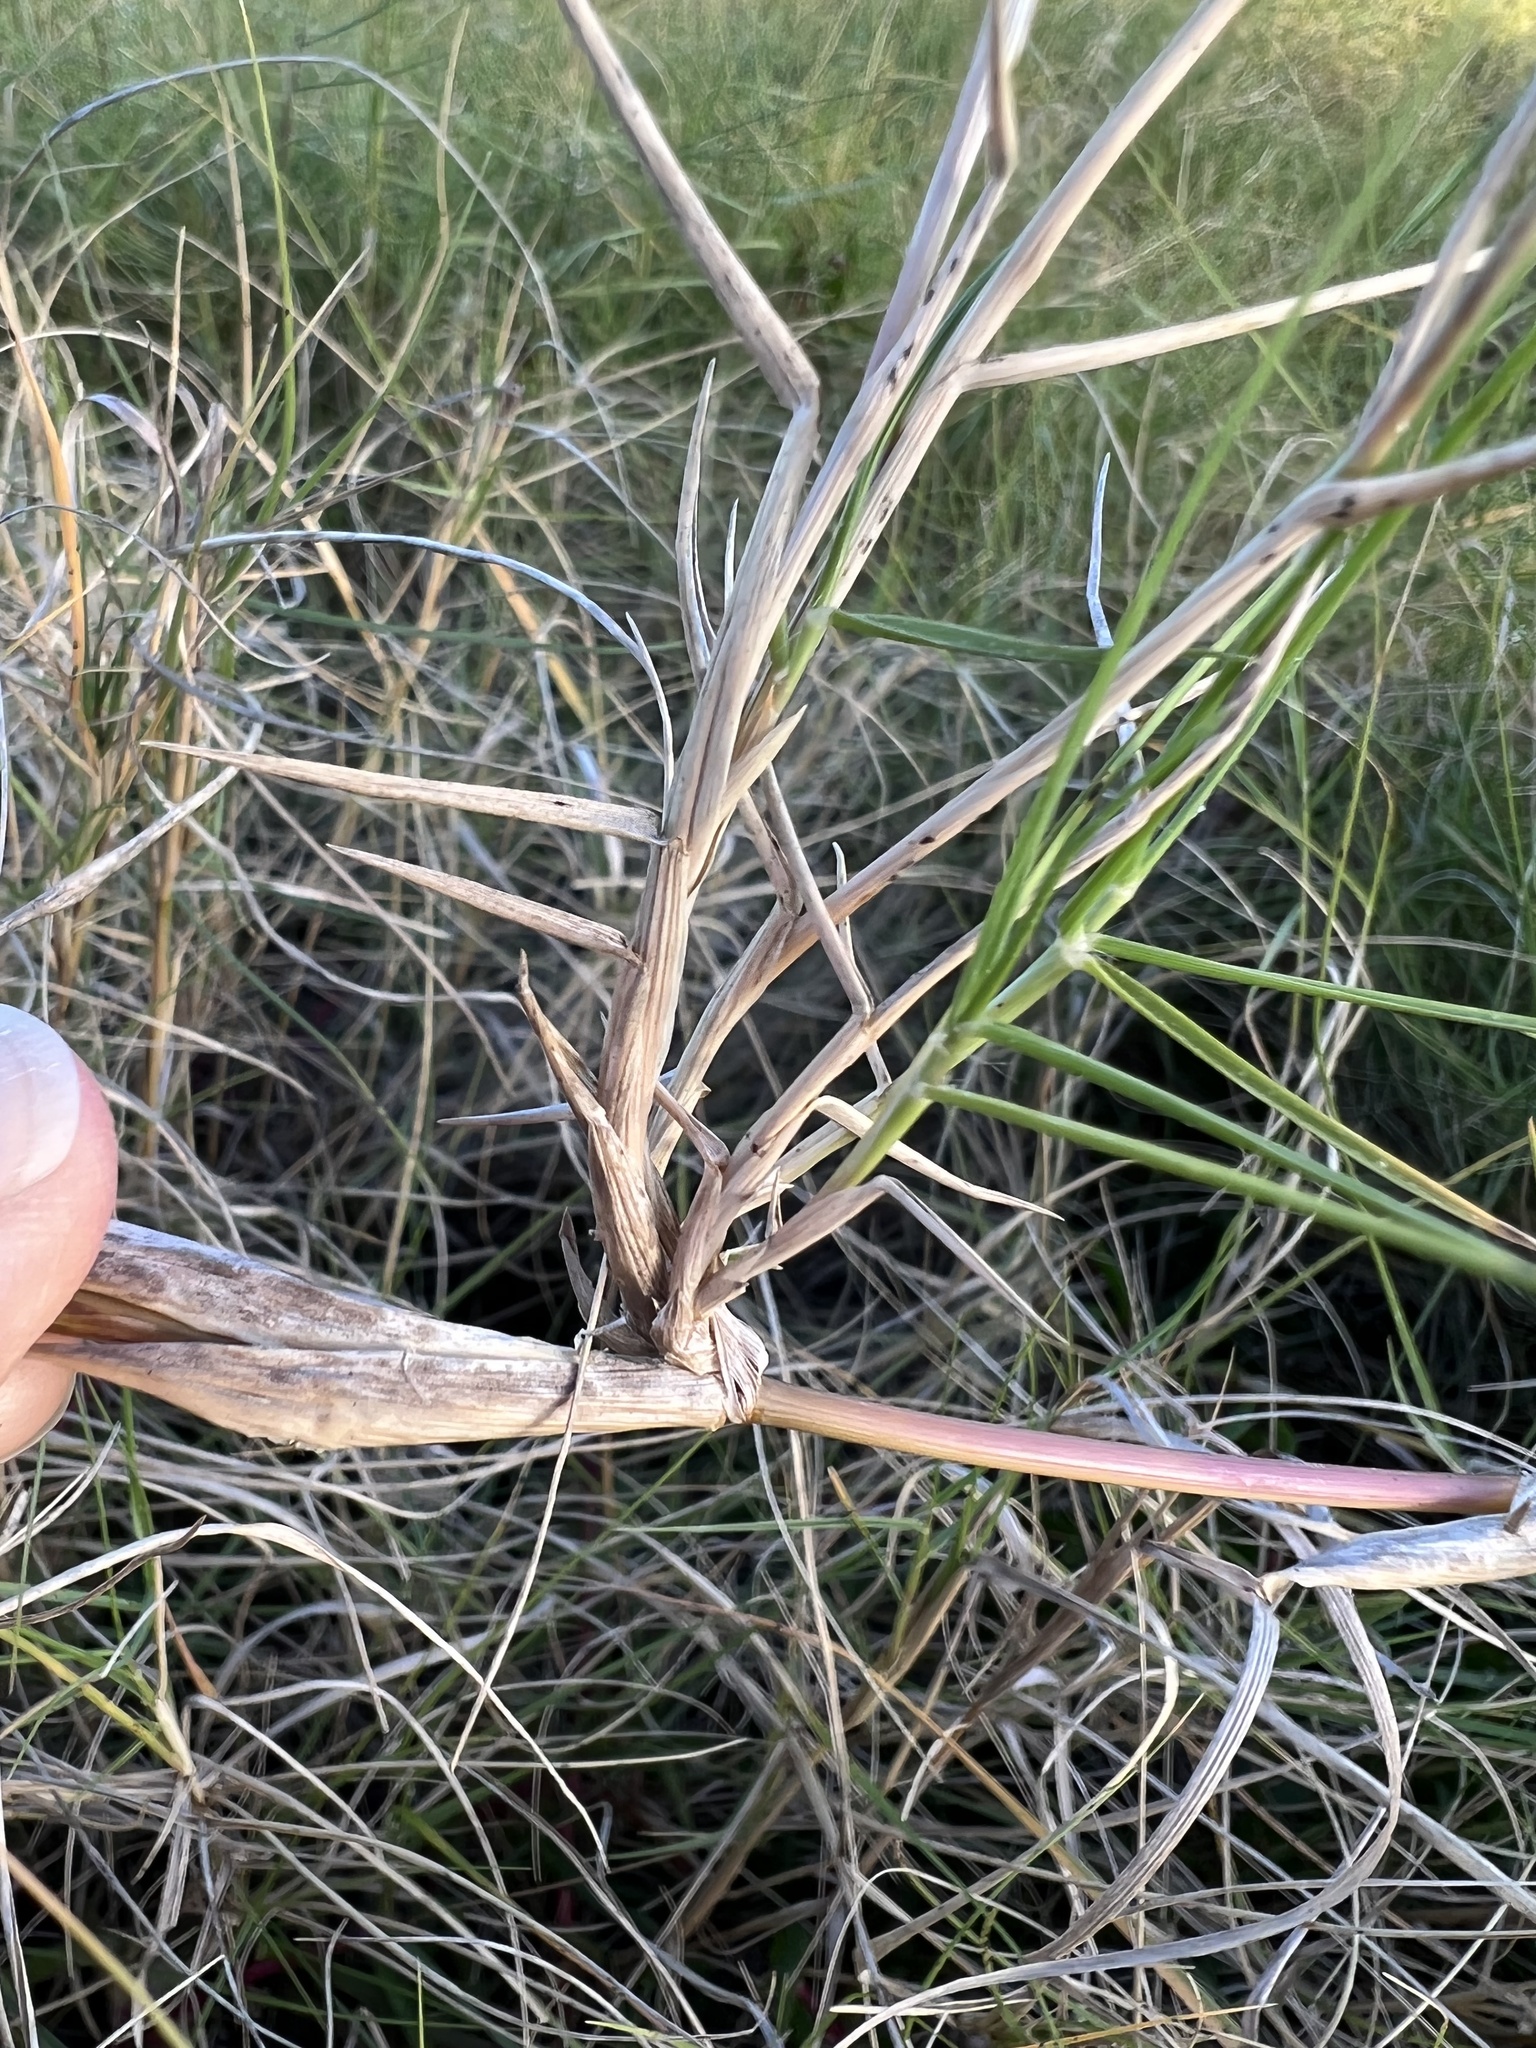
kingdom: Plantae
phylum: Tracheophyta
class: Liliopsida
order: Poales
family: Poaceae
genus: Sporobolus
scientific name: Sporobolus virginicus
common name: Beach dropseed
